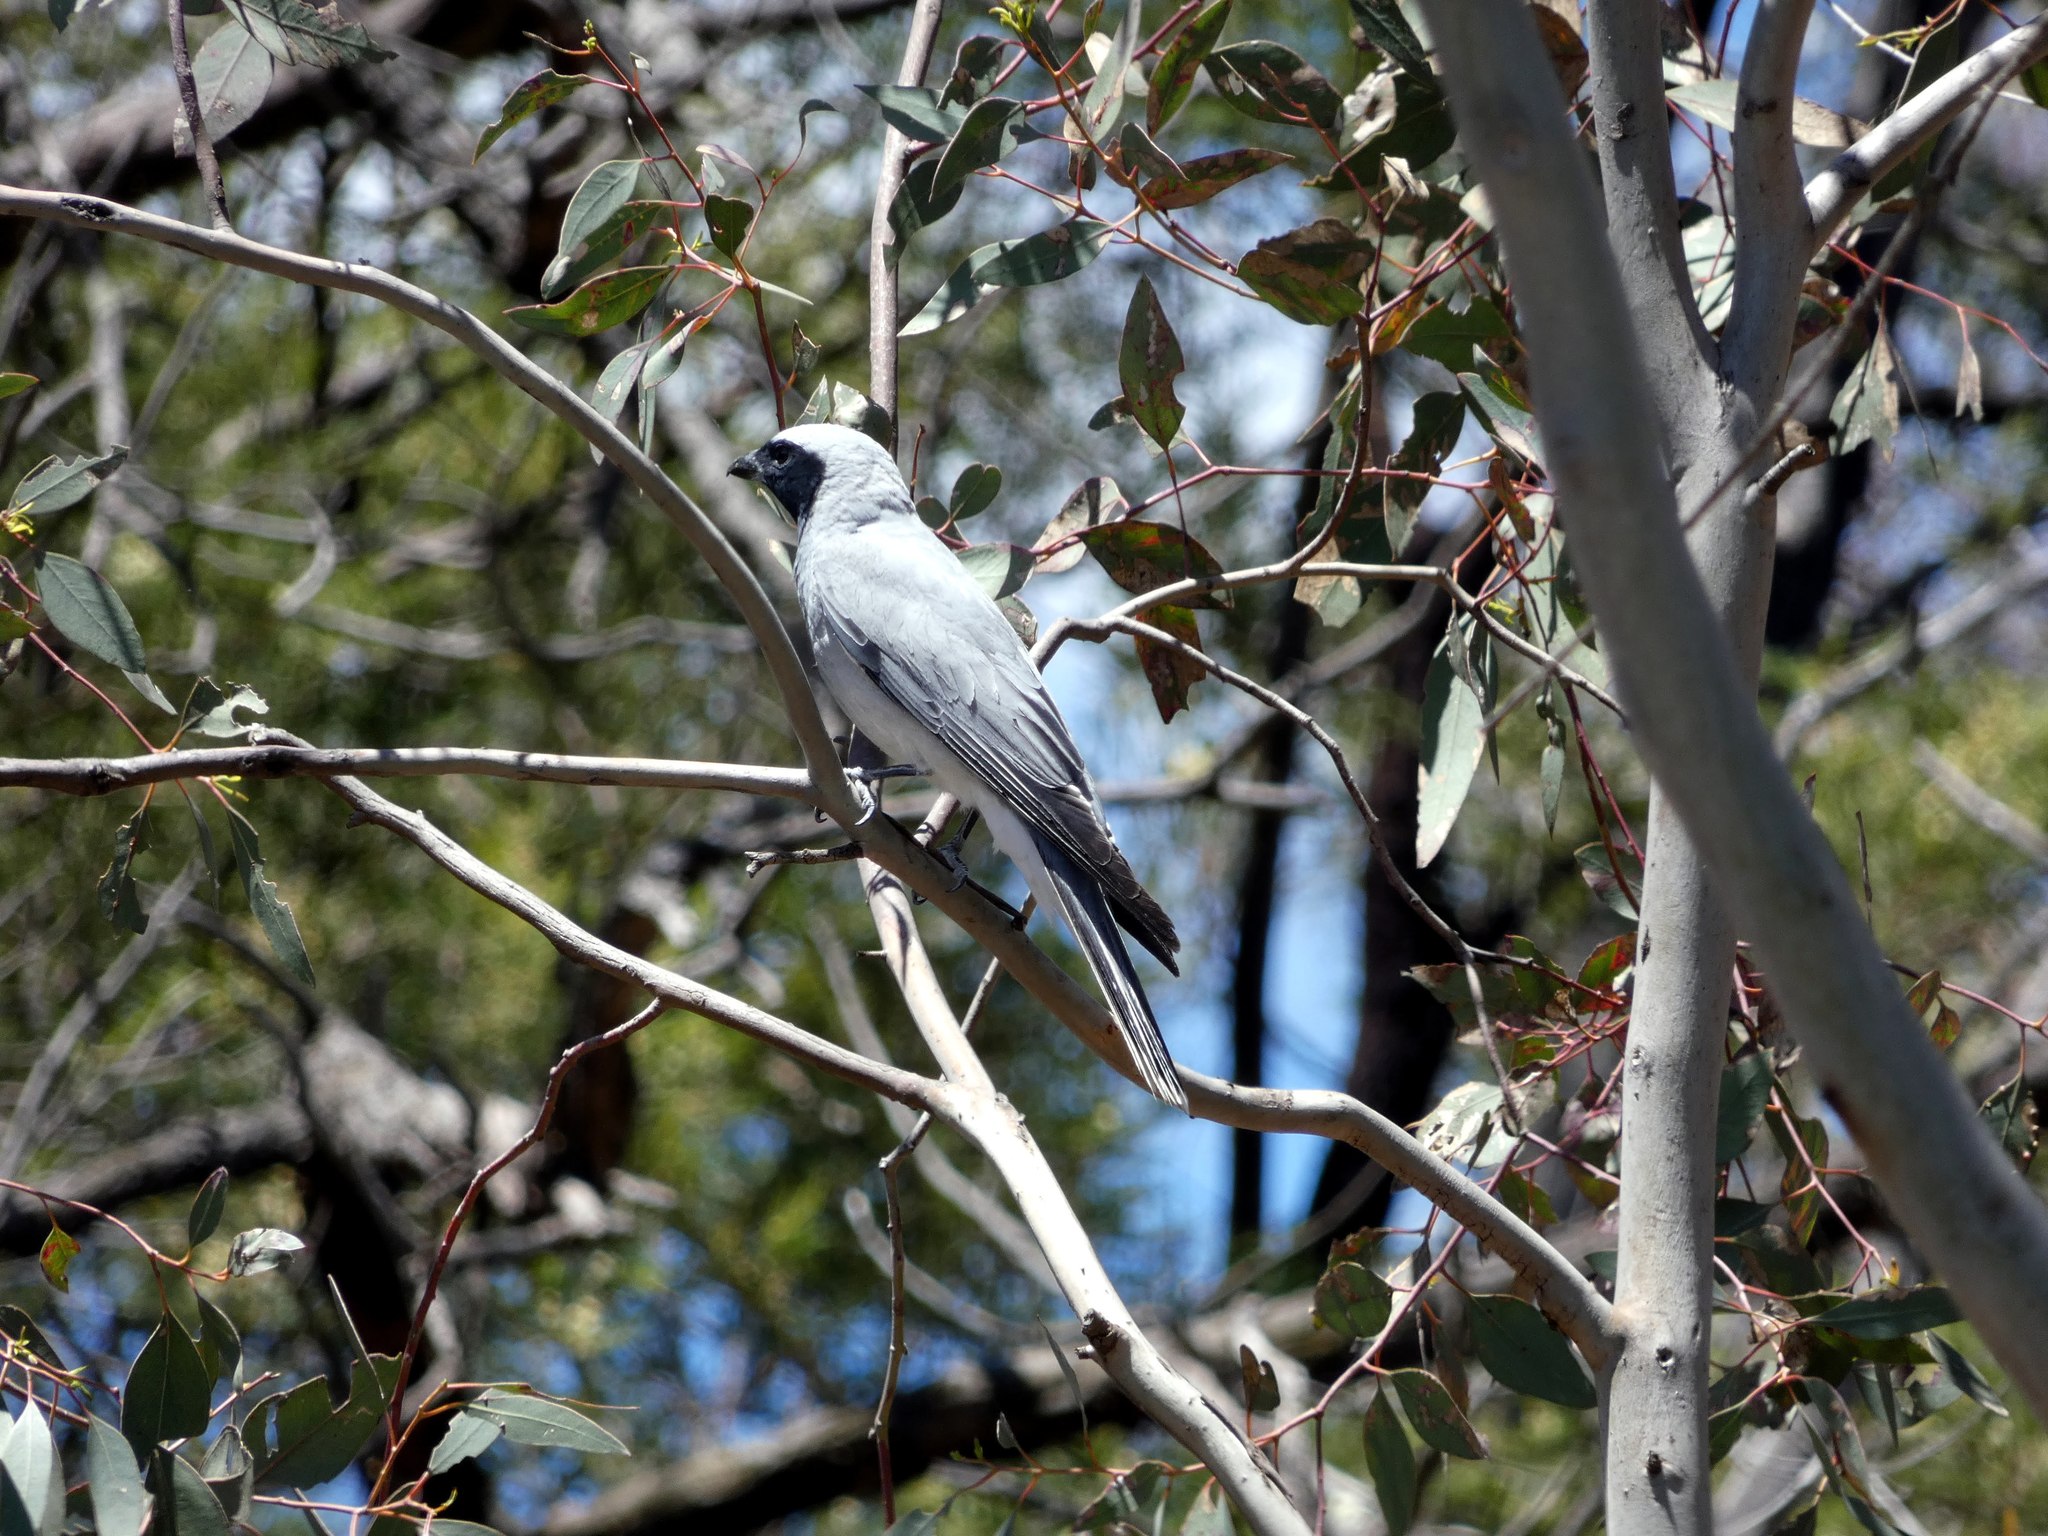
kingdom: Animalia
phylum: Chordata
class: Aves
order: Passeriformes
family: Campephagidae
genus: Coracina
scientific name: Coracina novaehollandiae
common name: Black-faced cuckooshrike
